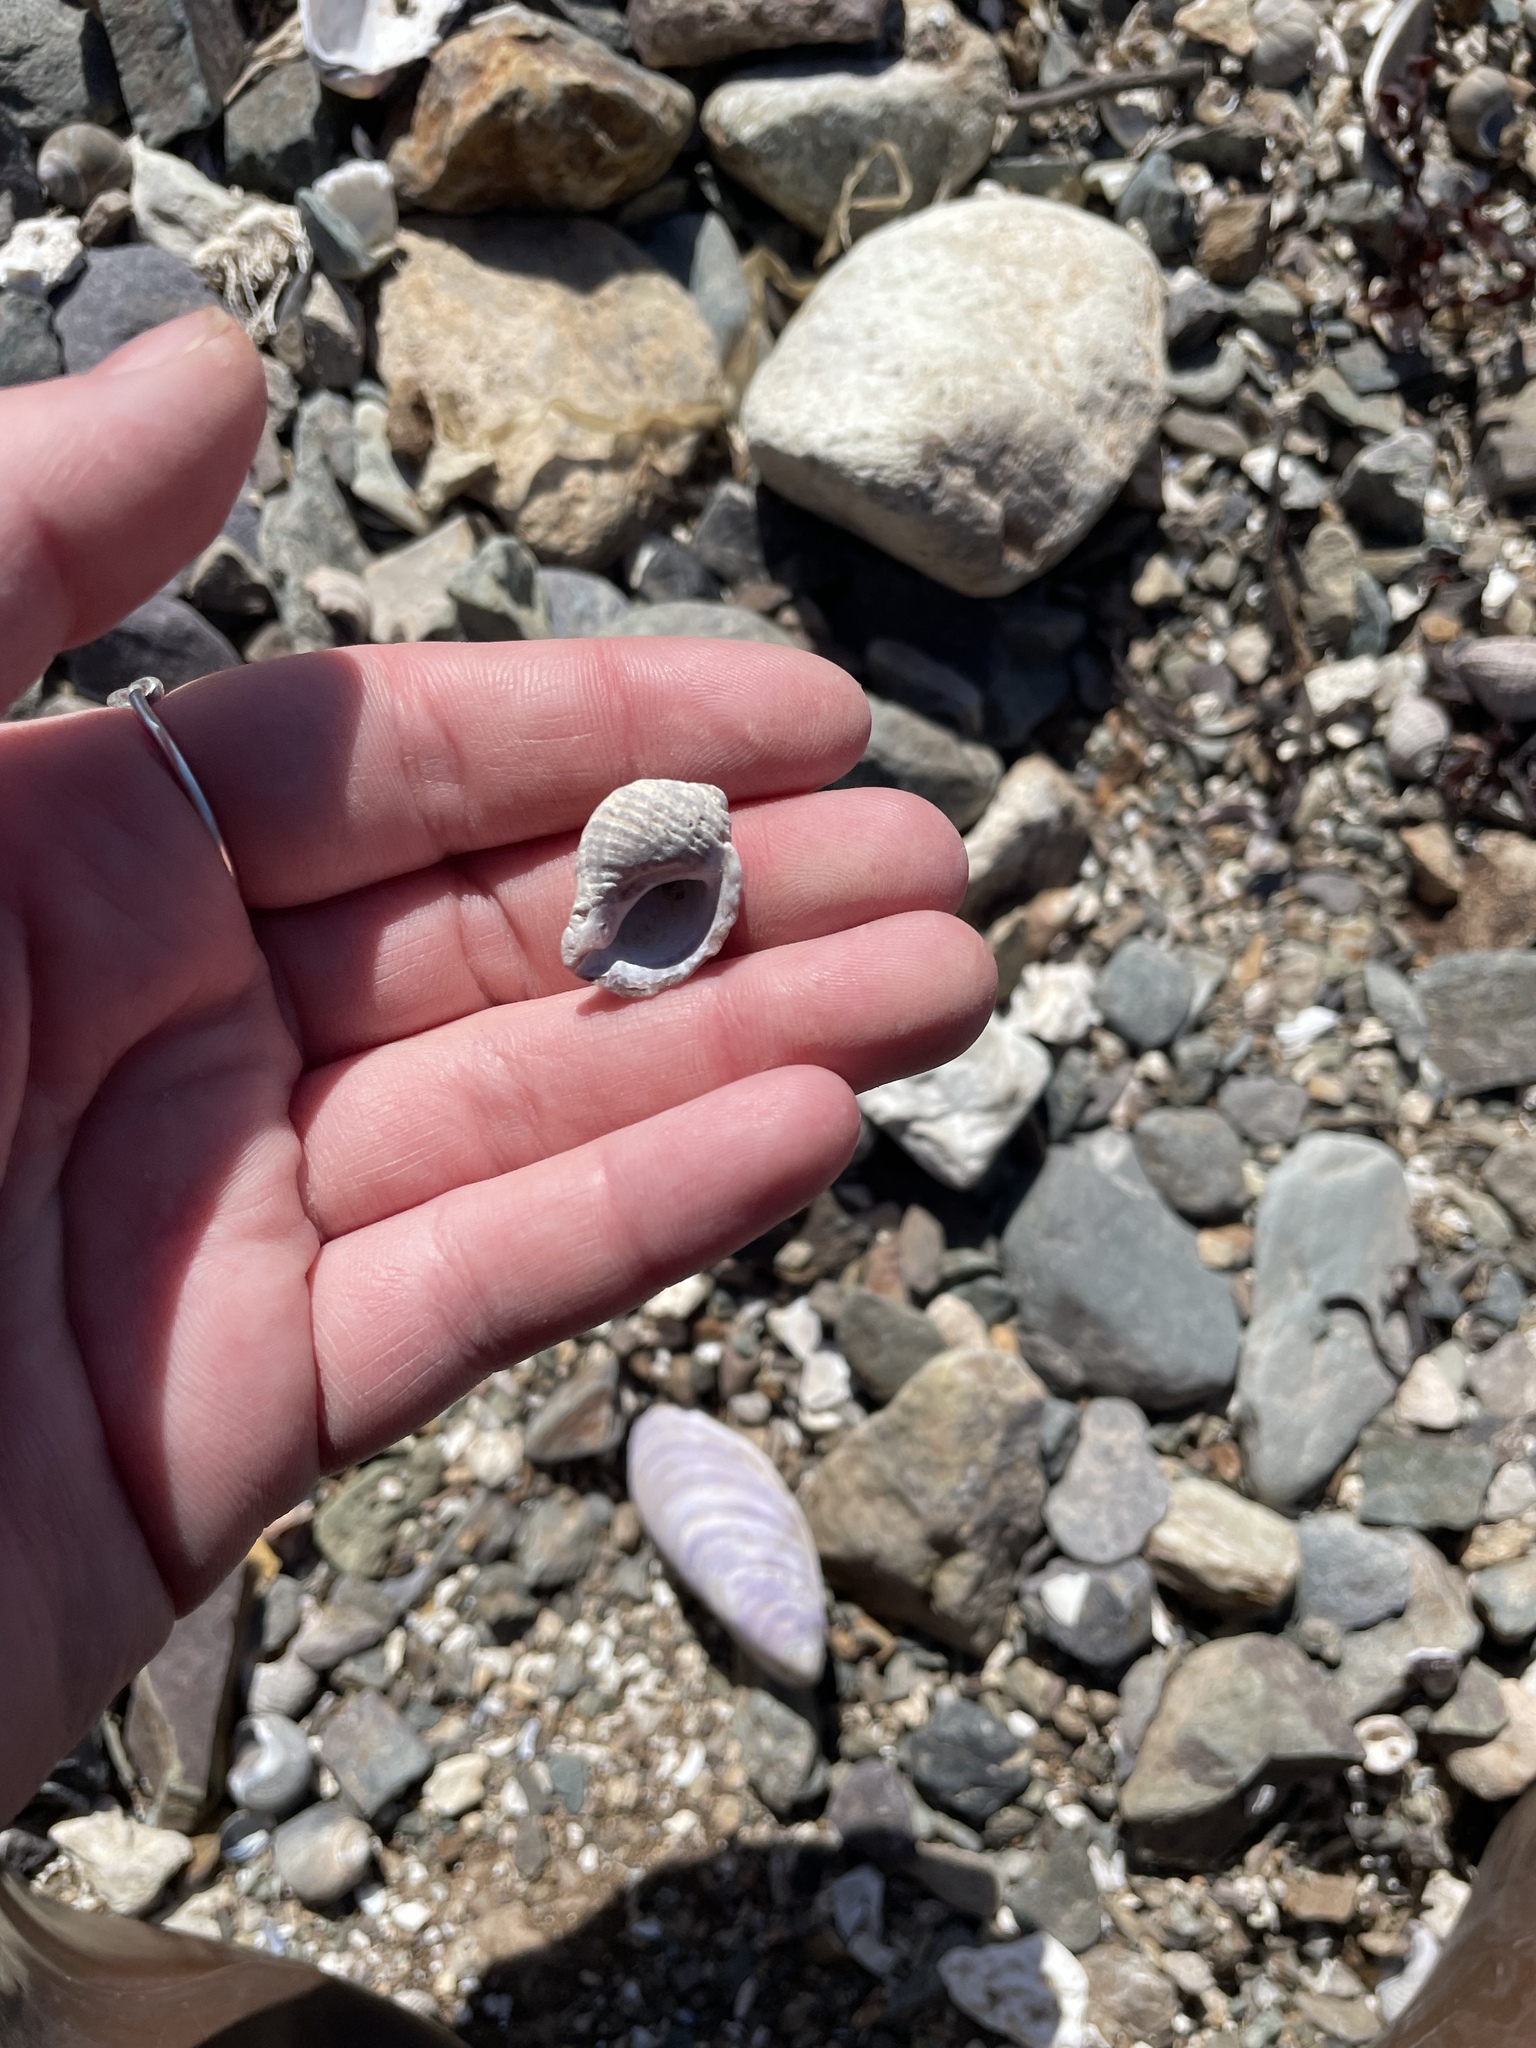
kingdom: Animalia
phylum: Mollusca
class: Gastropoda
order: Neogastropoda
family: Muricidae
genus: Nucella
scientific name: Nucella lapillus
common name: Dog whelk
